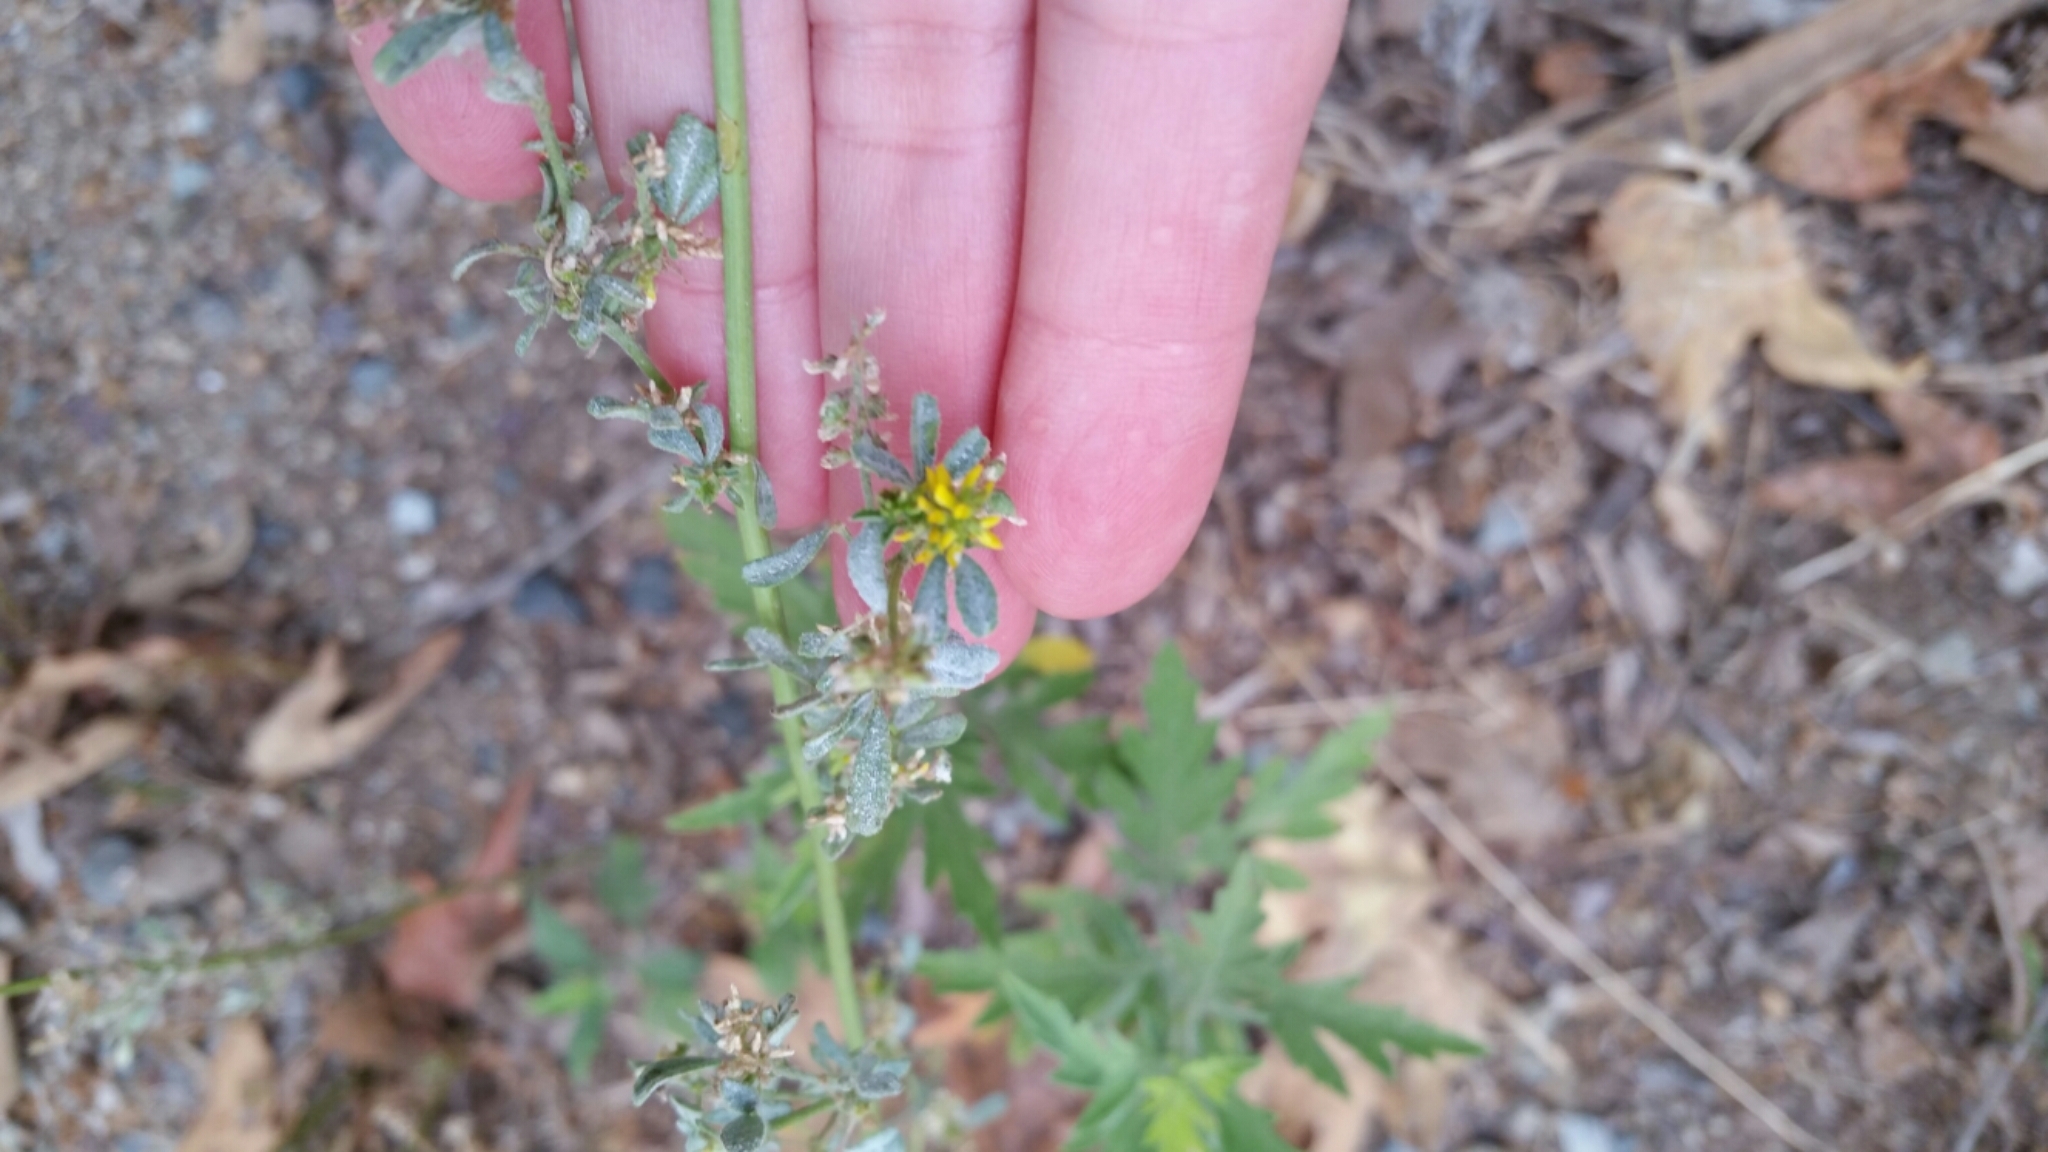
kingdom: Plantae
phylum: Tracheophyta
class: Magnoliopsida
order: Fabales
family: Fabaceae
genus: Melilotus
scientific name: Melilotus indicus
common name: Small melilot
